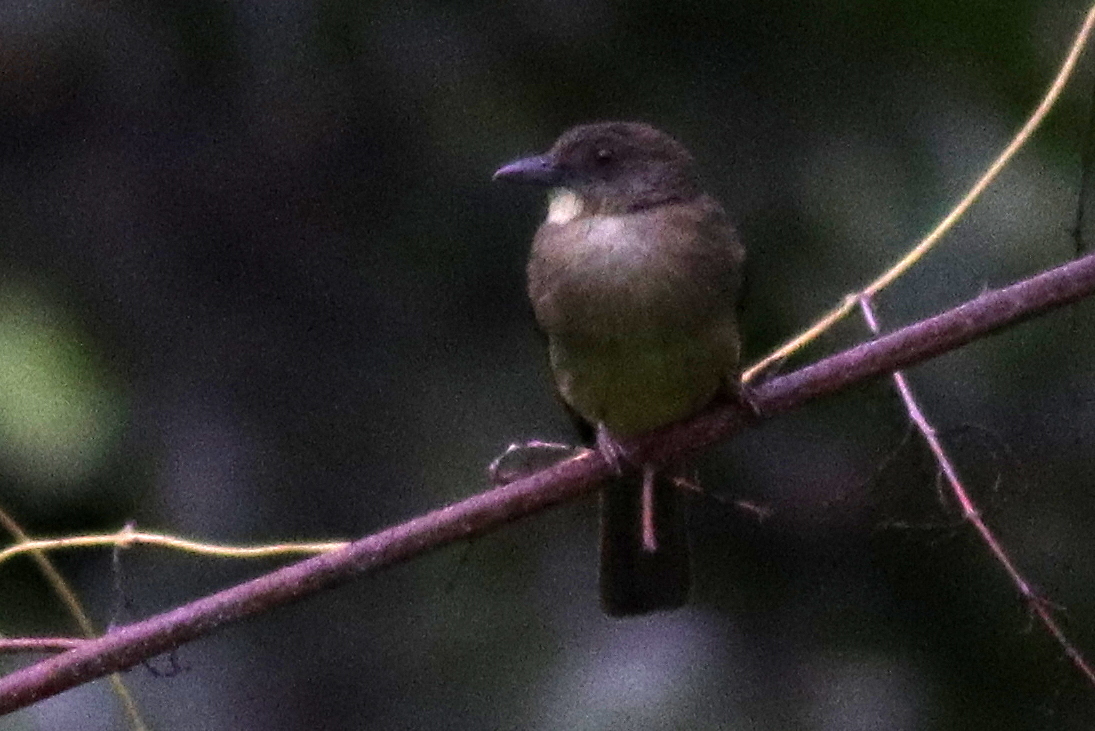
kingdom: Animalia
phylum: Chordata
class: Aves
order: Passeriformes
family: Pycnonotidae
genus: Alophoixus
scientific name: Alophoixus finschii
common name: Finsch's bulbul
